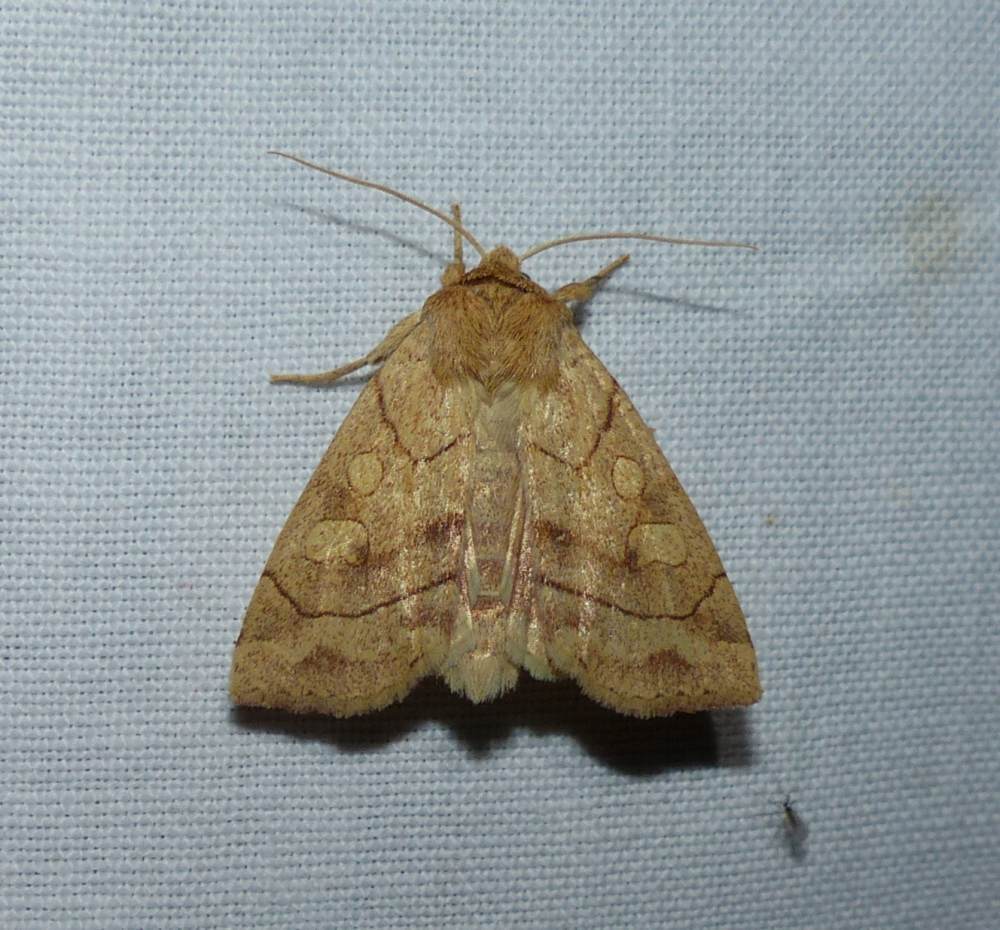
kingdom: Animalia
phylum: Arthropoda
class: Insecta
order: Lepidoptera
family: Noctuidae
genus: Enargia
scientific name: Enargia decolor
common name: Aspen twoleaf tier moth
